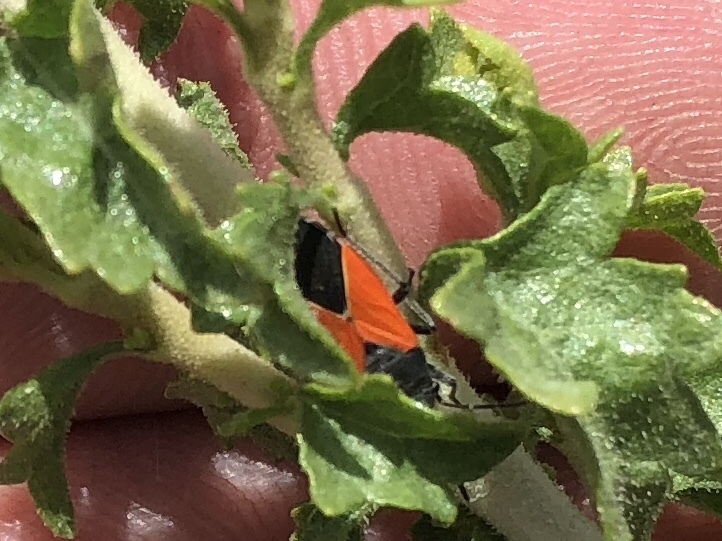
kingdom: Animalia
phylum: Arthropoda
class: Insecta
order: Hemiptera
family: Lygaeidae
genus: Melanopleurus
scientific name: Melanopleurus belfragei
